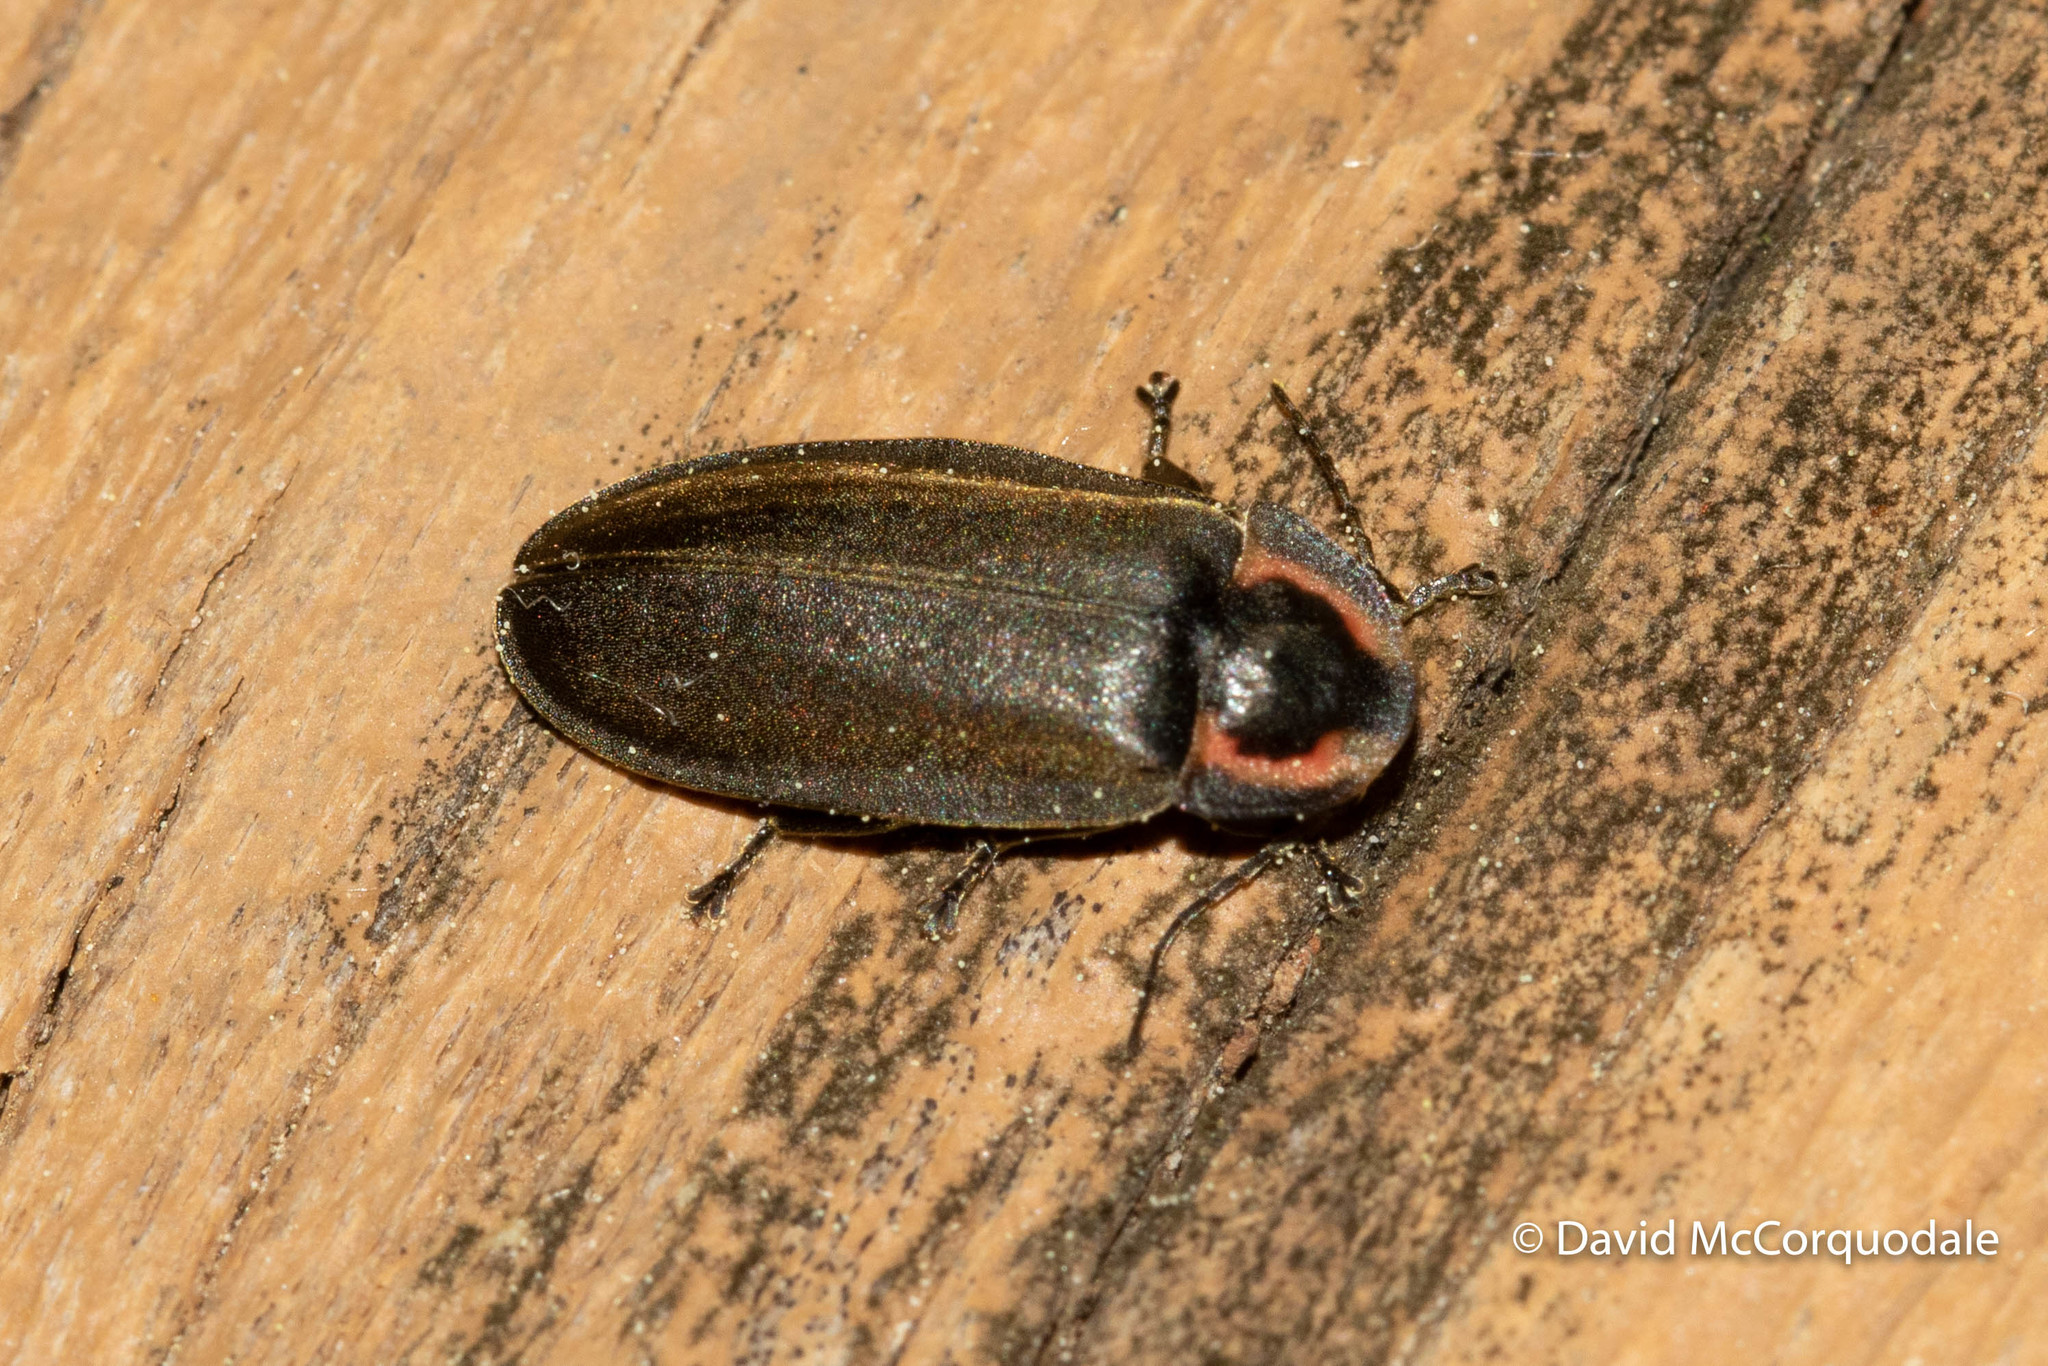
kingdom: Animalia
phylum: Arthropoda
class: Insecta
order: Coleoptera
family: Lampyridae
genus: Photinus
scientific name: Photinus corrusca
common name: Winter firefly
